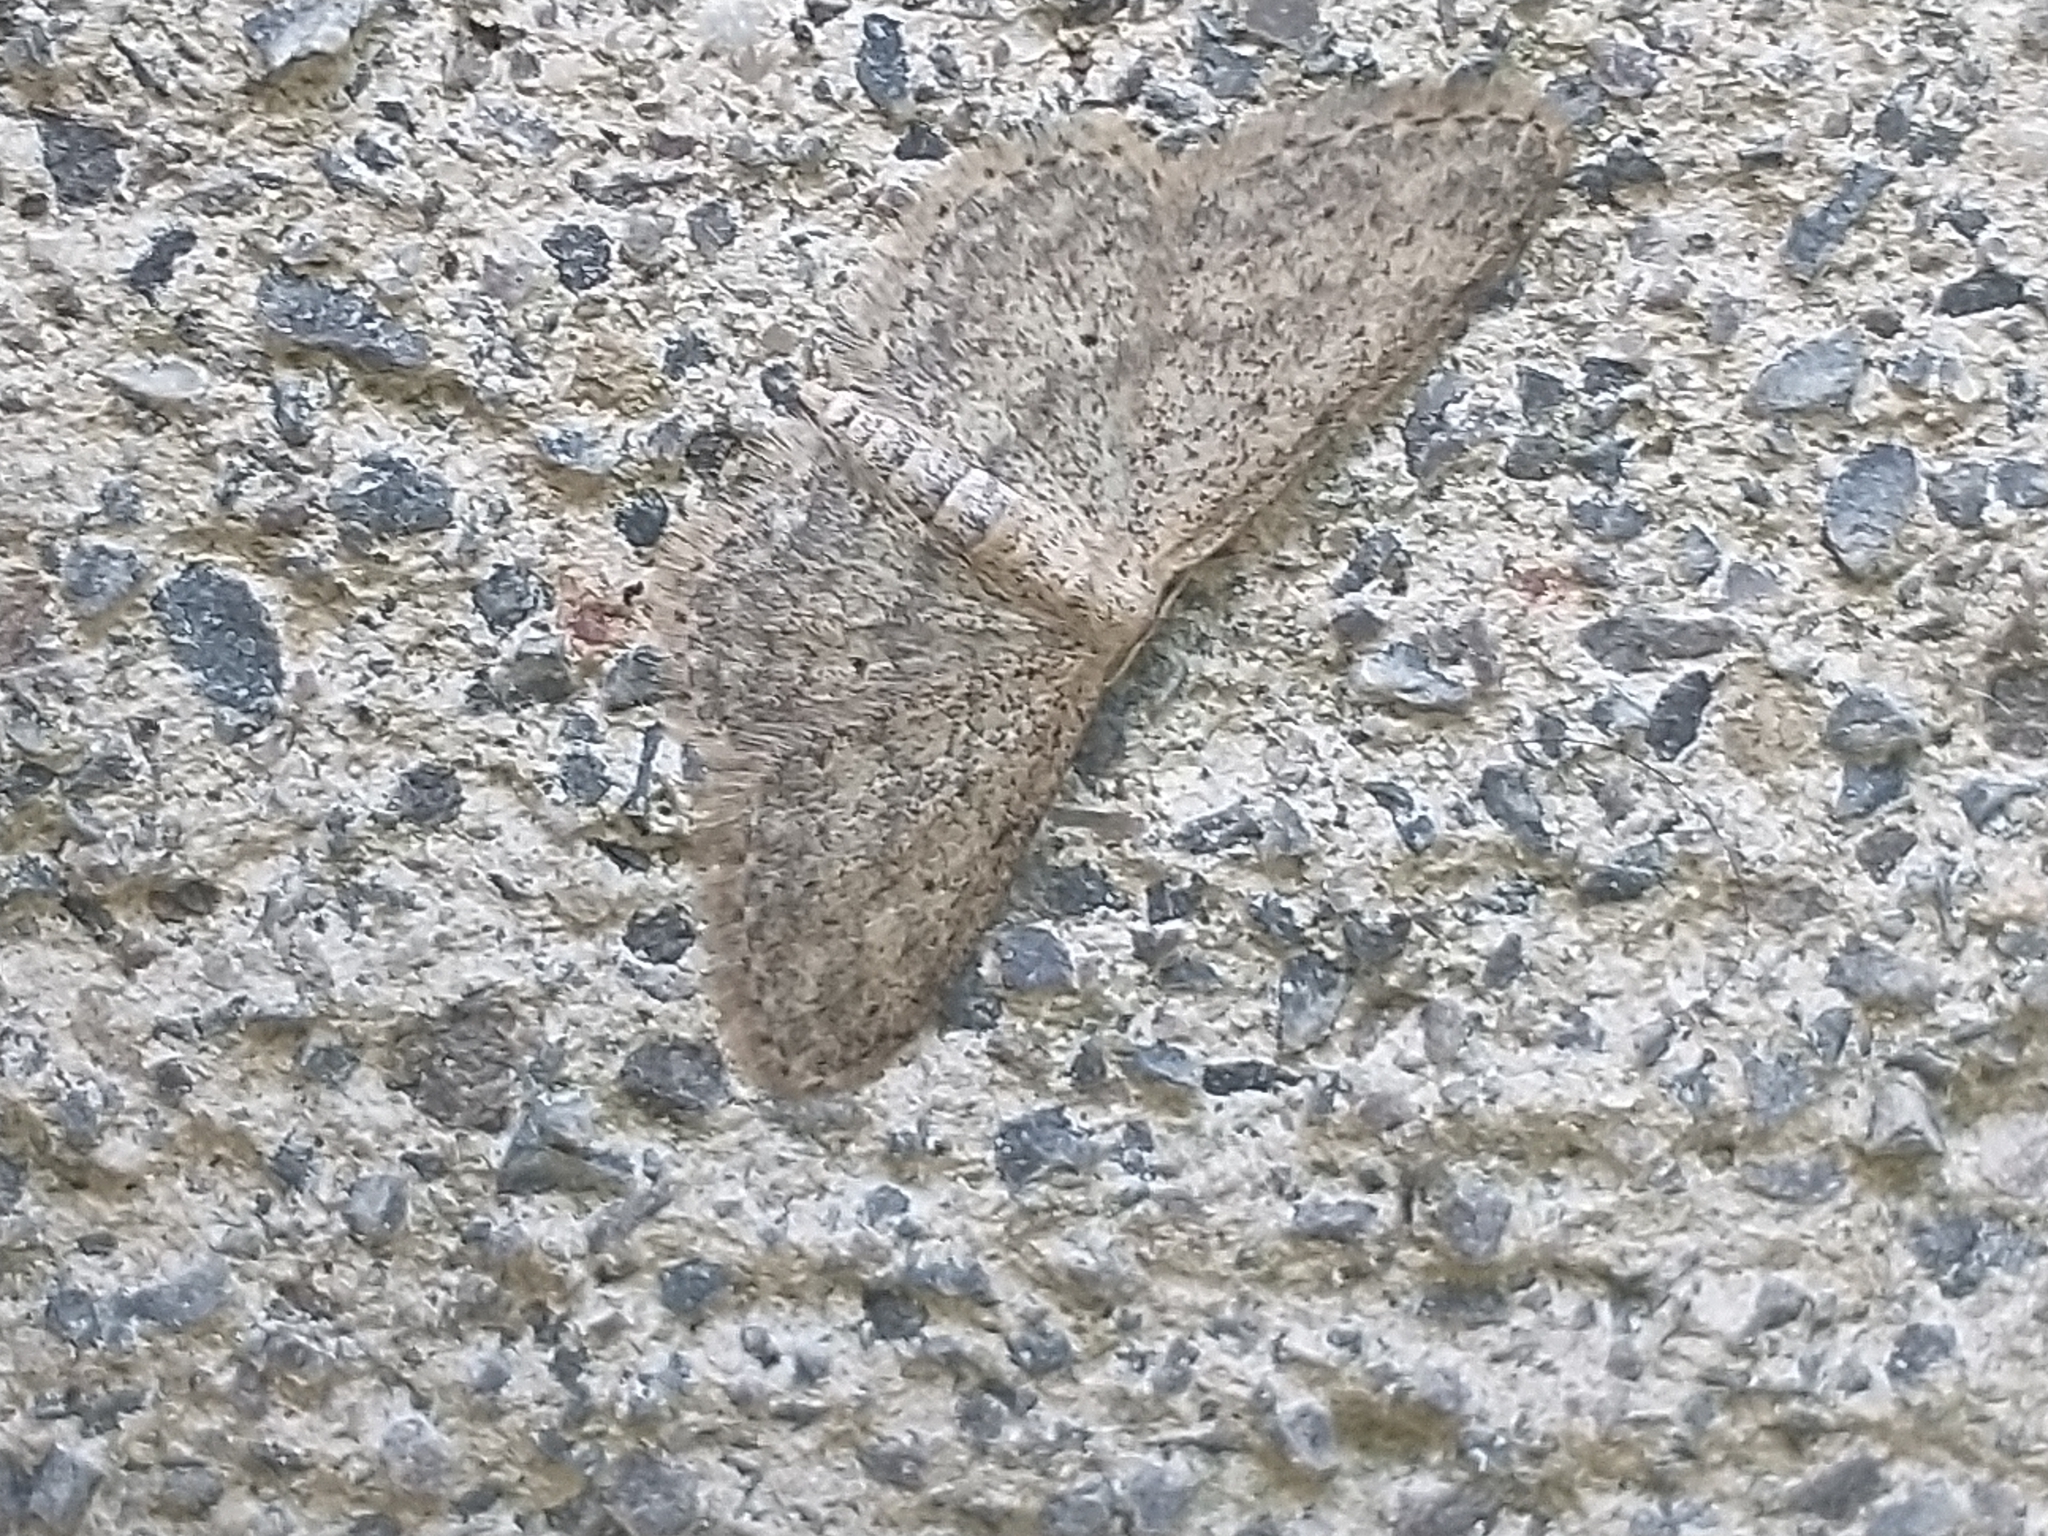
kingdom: Animalia
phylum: Arthropoda
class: Insecta
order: Lepidoptera
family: Geometridae
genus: Idaea
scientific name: Idaea seriata
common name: Small dusty wave
